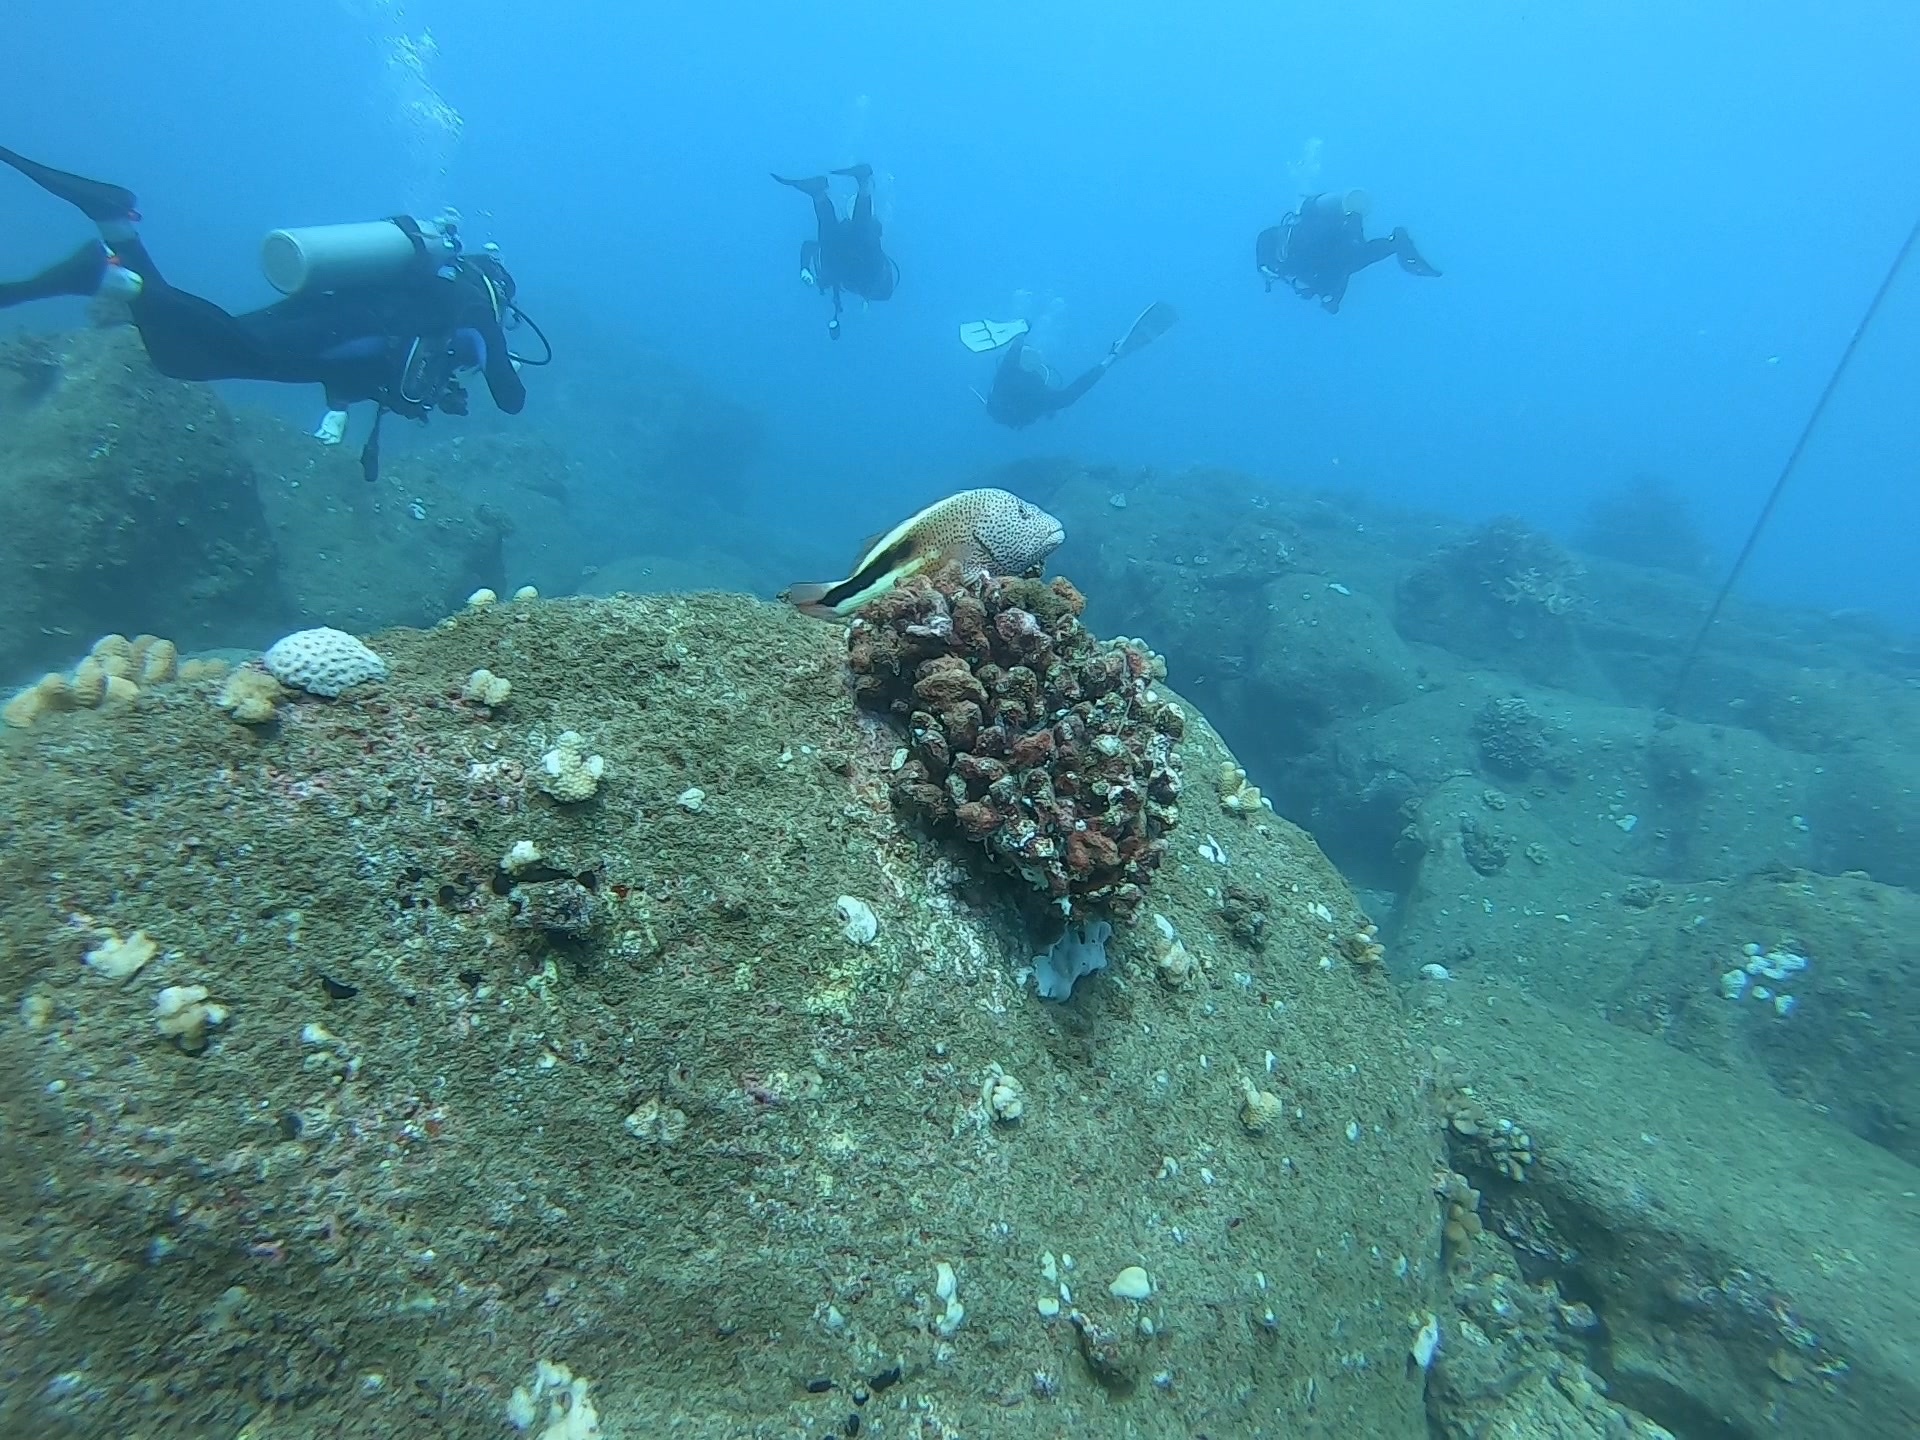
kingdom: Animalia
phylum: Chordata
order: Perciformes
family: Cirrhitidae
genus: Paracirrhites
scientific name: Paracirrhites forsteri
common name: Freckled hawkfish
